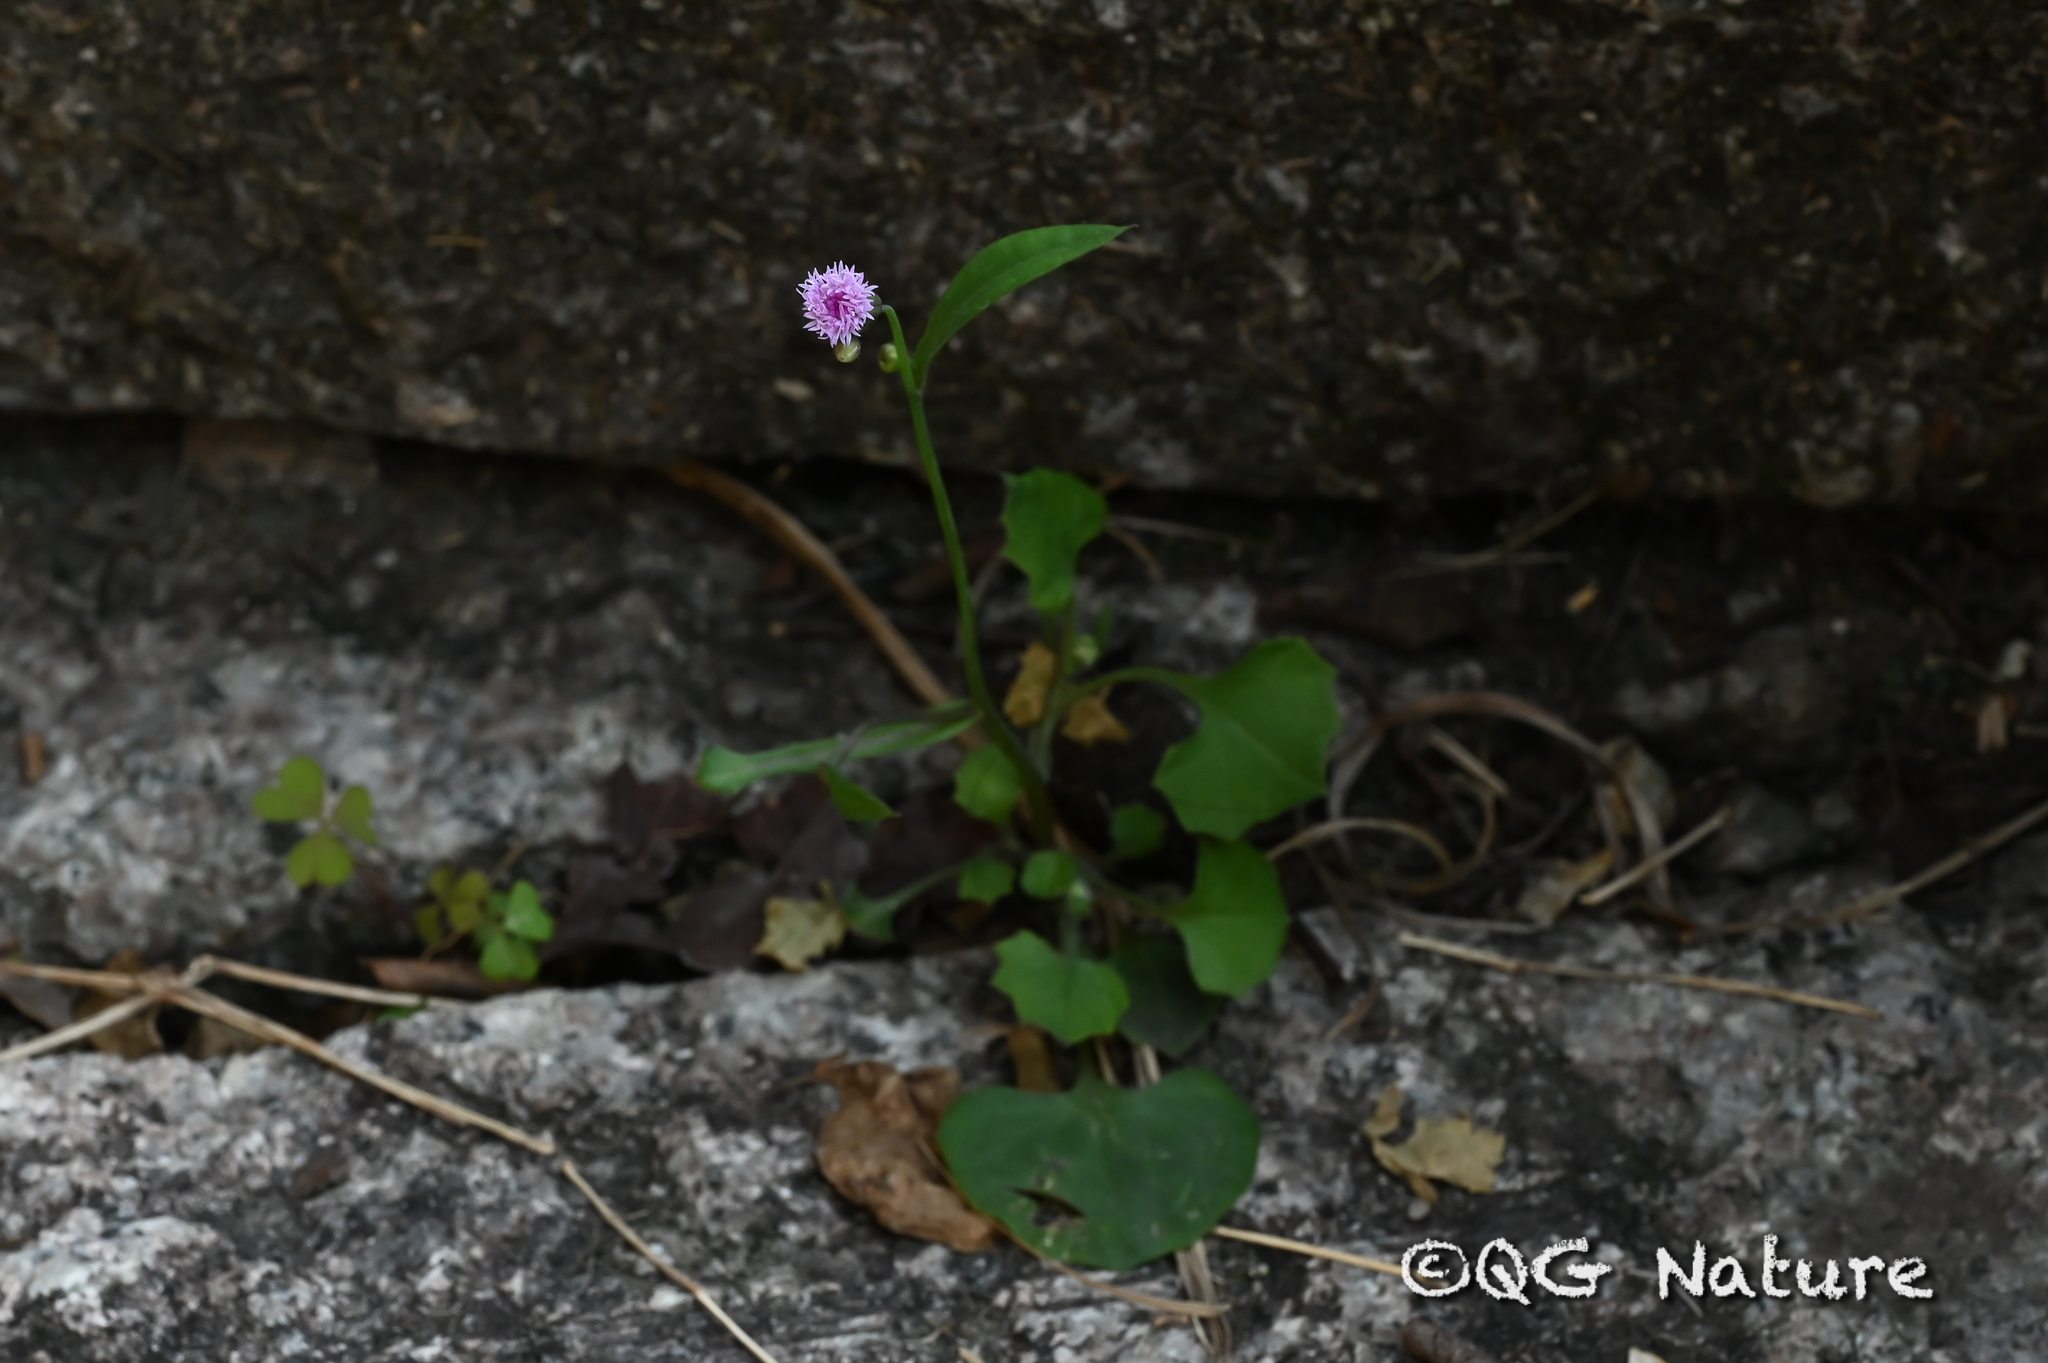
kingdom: Plantae
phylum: Tracheophyta
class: Magnoliopsida
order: Asterales
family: Asteraceae
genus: Emilia
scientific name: Emilia sonchifolia
